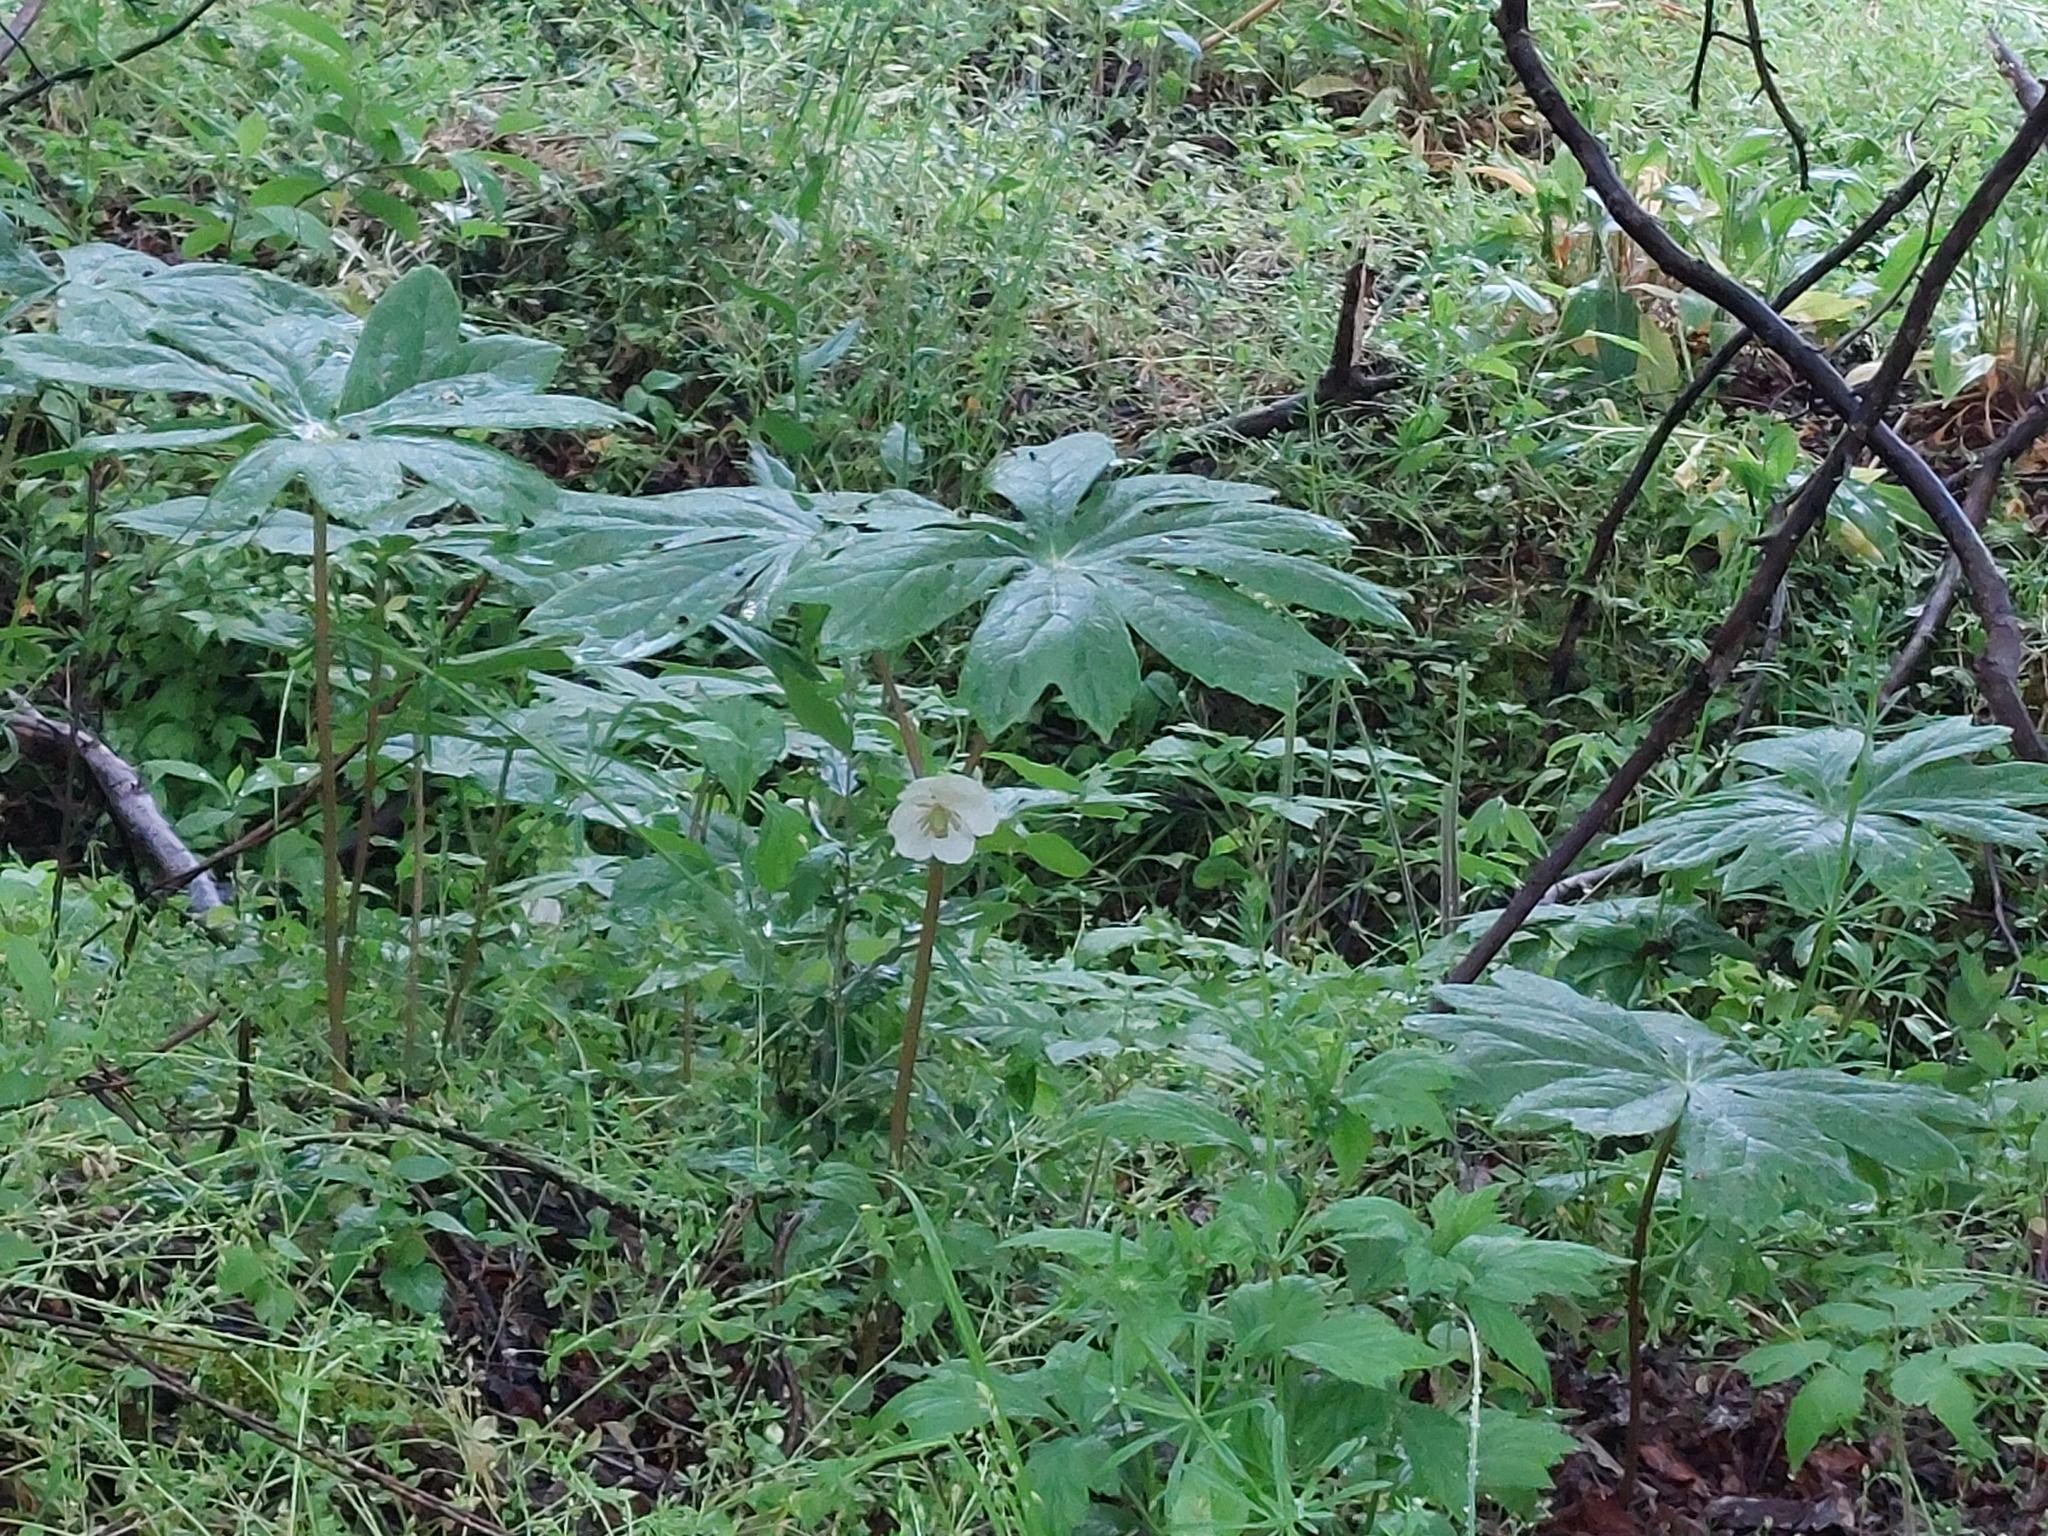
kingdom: Plantae
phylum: Tracheophyta
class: Magnoliopsida
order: Ranunculales
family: Berberidaceae
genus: Podophyllum
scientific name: Podophyllum peltatum
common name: Wild mandrake
